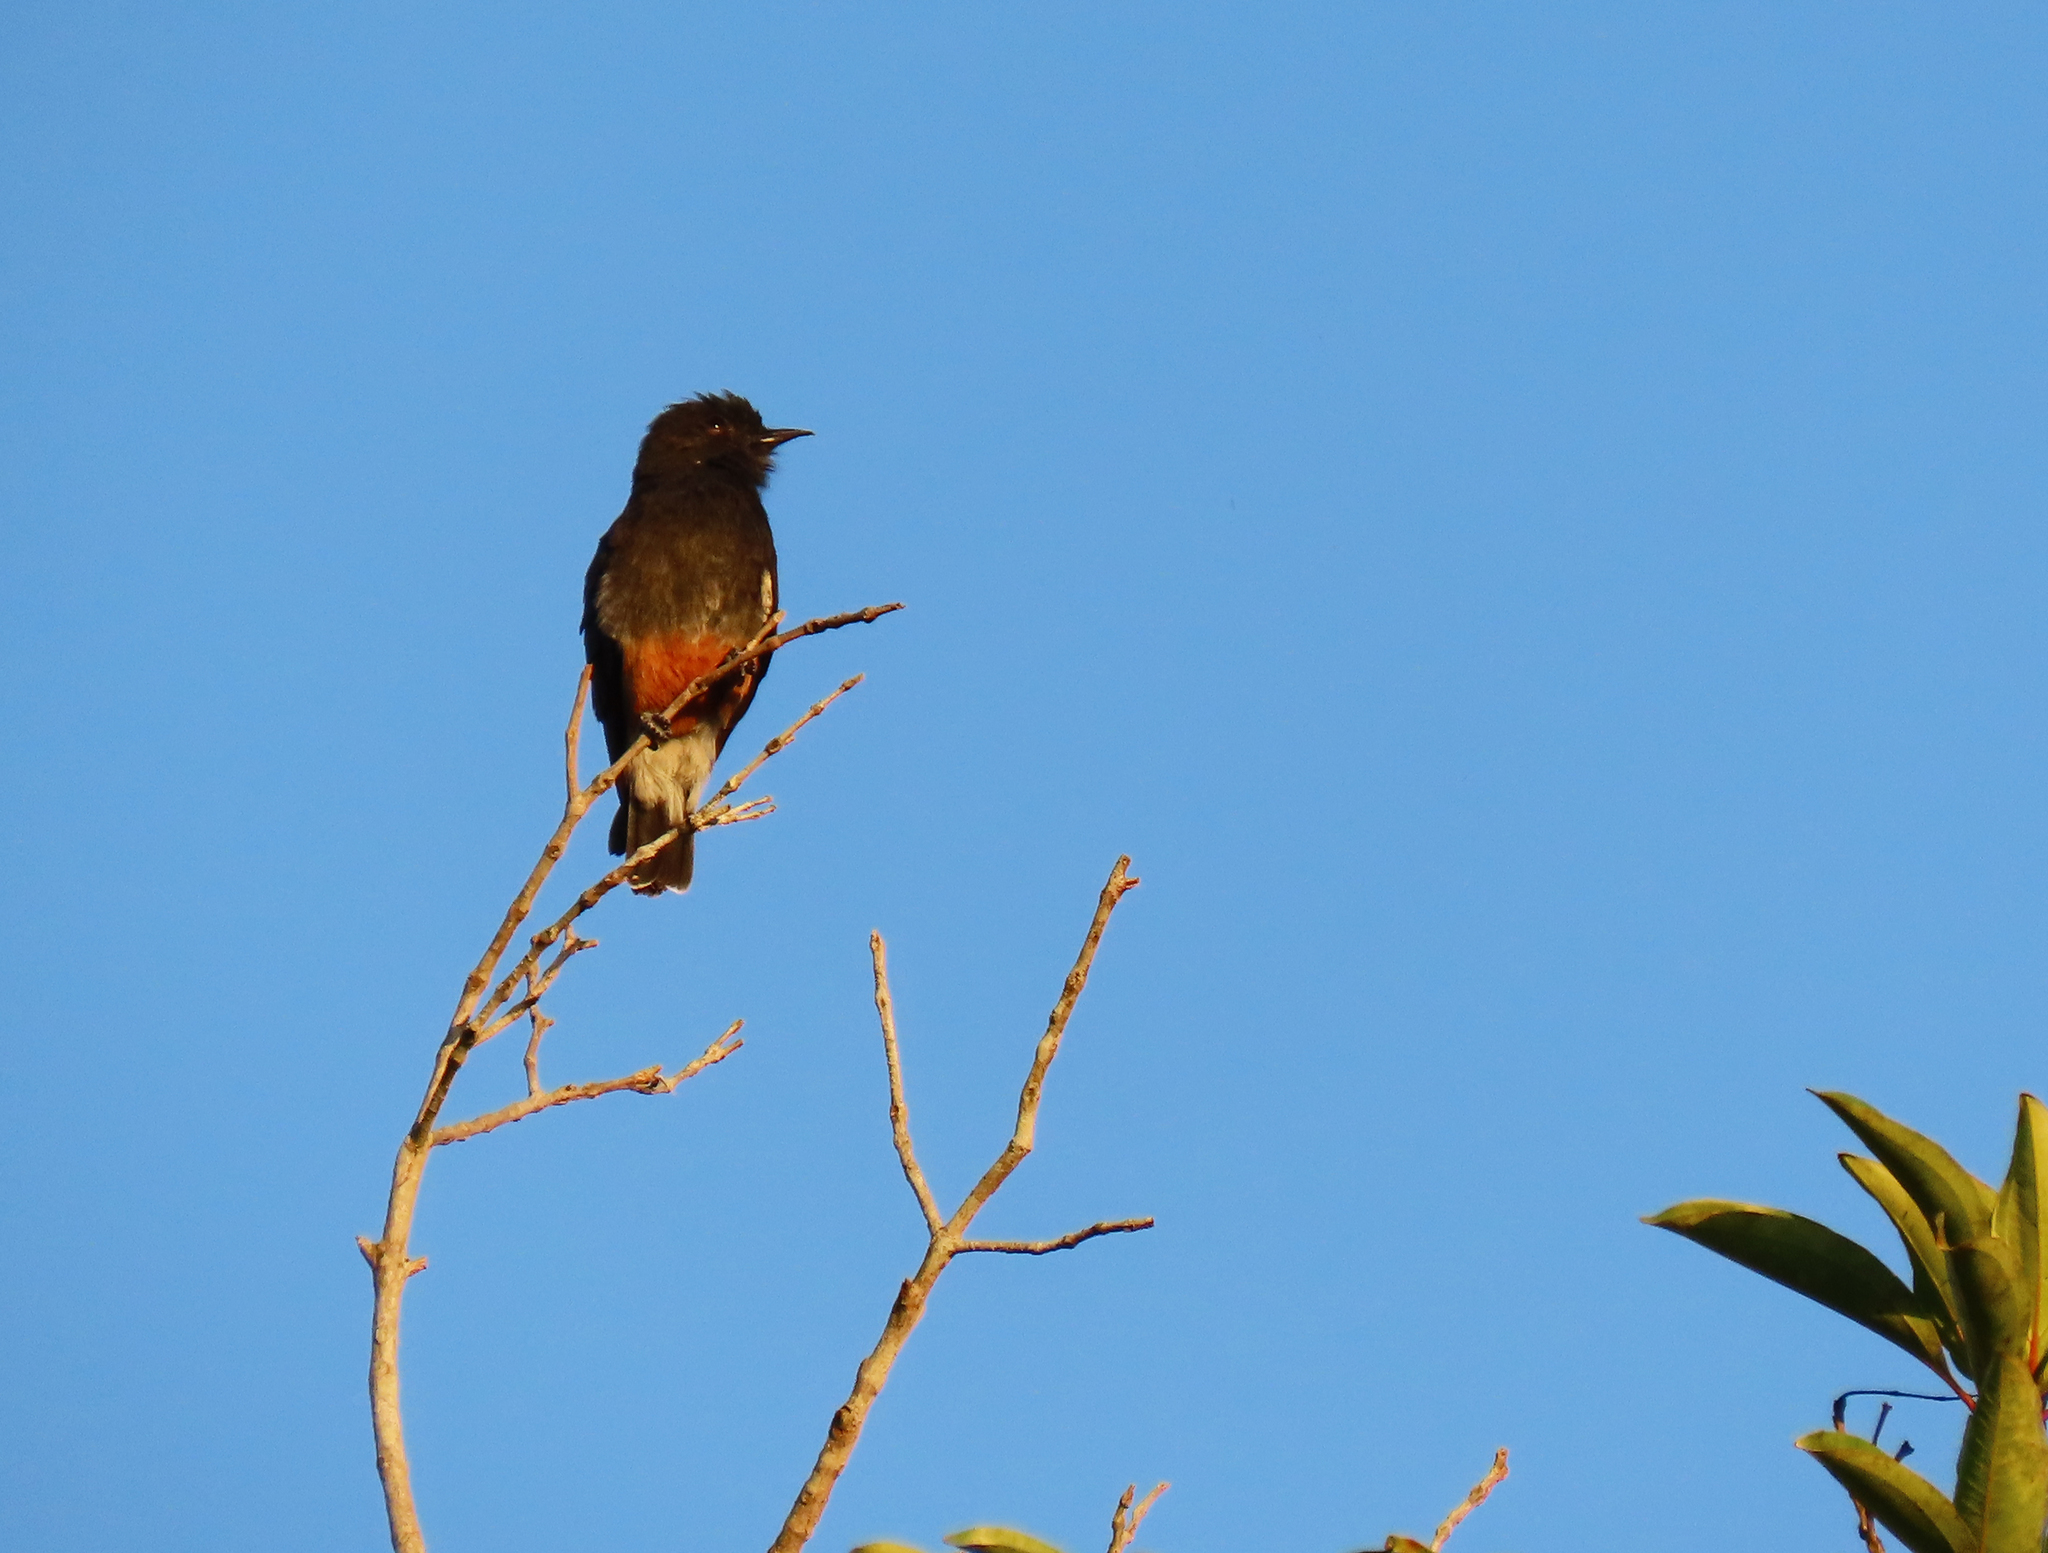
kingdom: Animalia
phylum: Chordata
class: Aves
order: Piciformes
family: Bucconidae
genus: Chelidoptera
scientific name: Chelidoptera tenebrosa
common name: Swallow-winged puffbird
